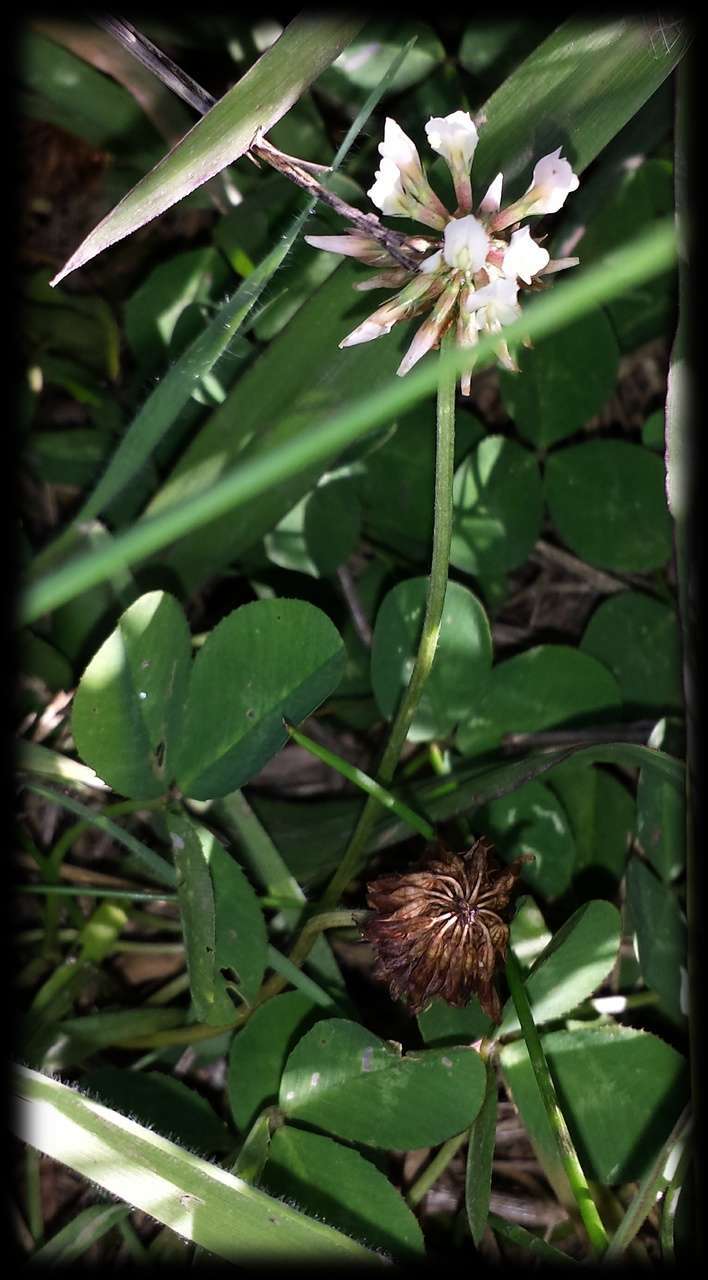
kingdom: Plantae
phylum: Tracheophyta
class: Magnoliopsida
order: Fabales
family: Fabaceae
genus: Trifolium
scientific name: Trifolium repens
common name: White clover
